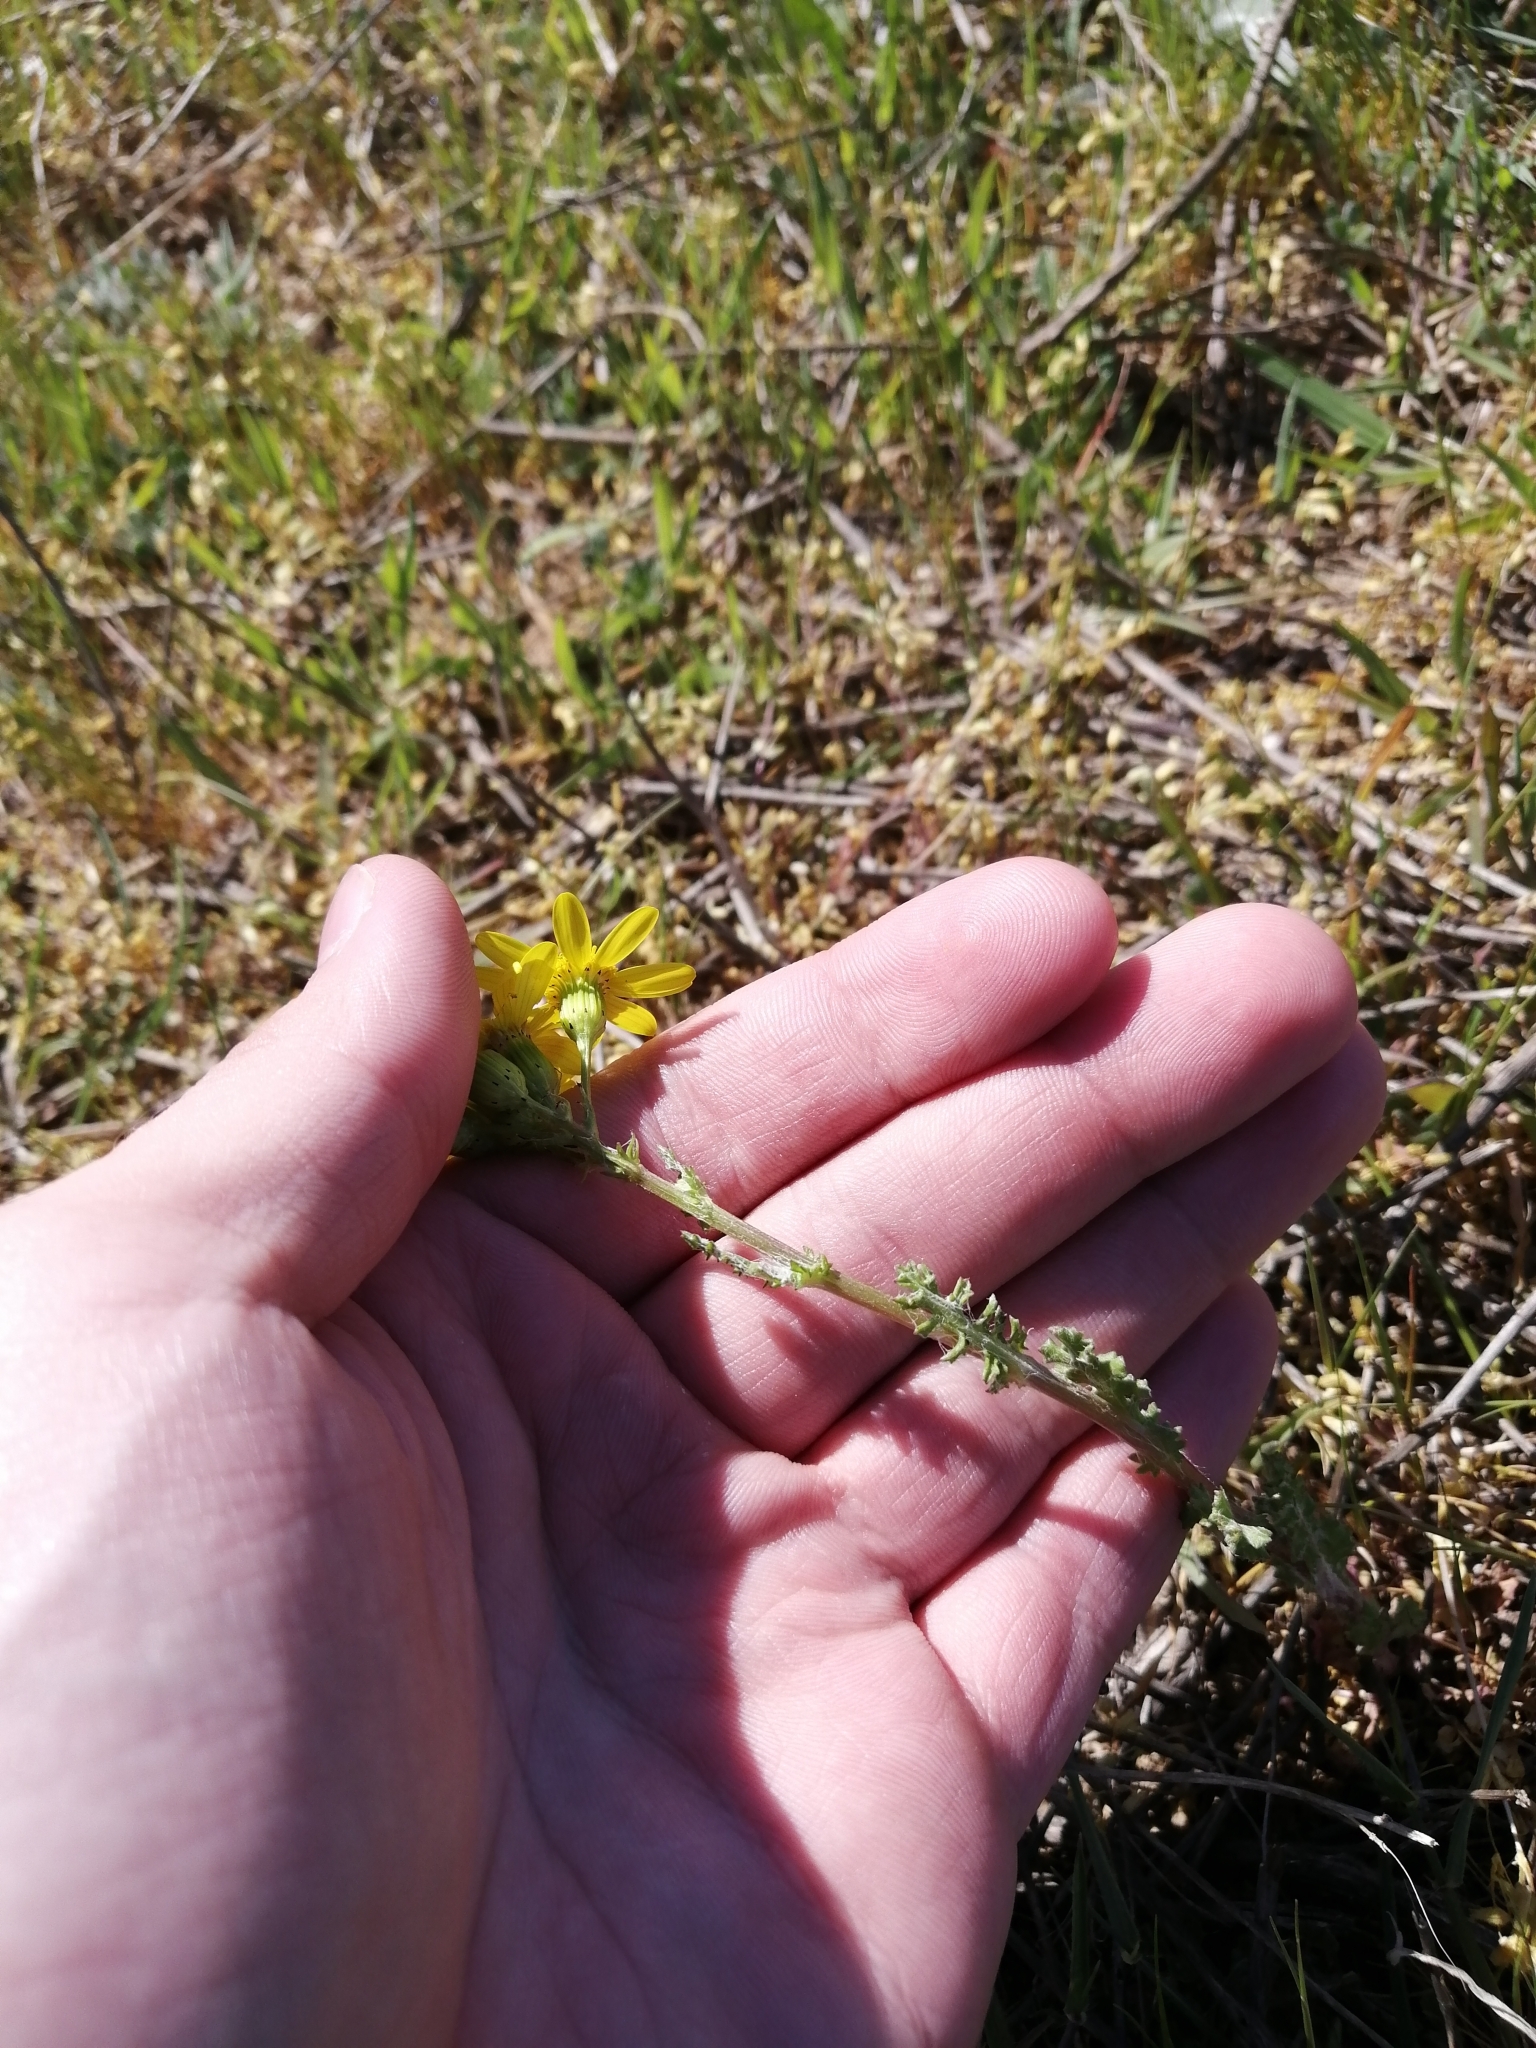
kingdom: Plantae
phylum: Tracheophyta
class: Magnoliopsida
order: Asterales
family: Asteraceae
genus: Senecio
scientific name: Senecio vernalis
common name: Eastern groundsel
